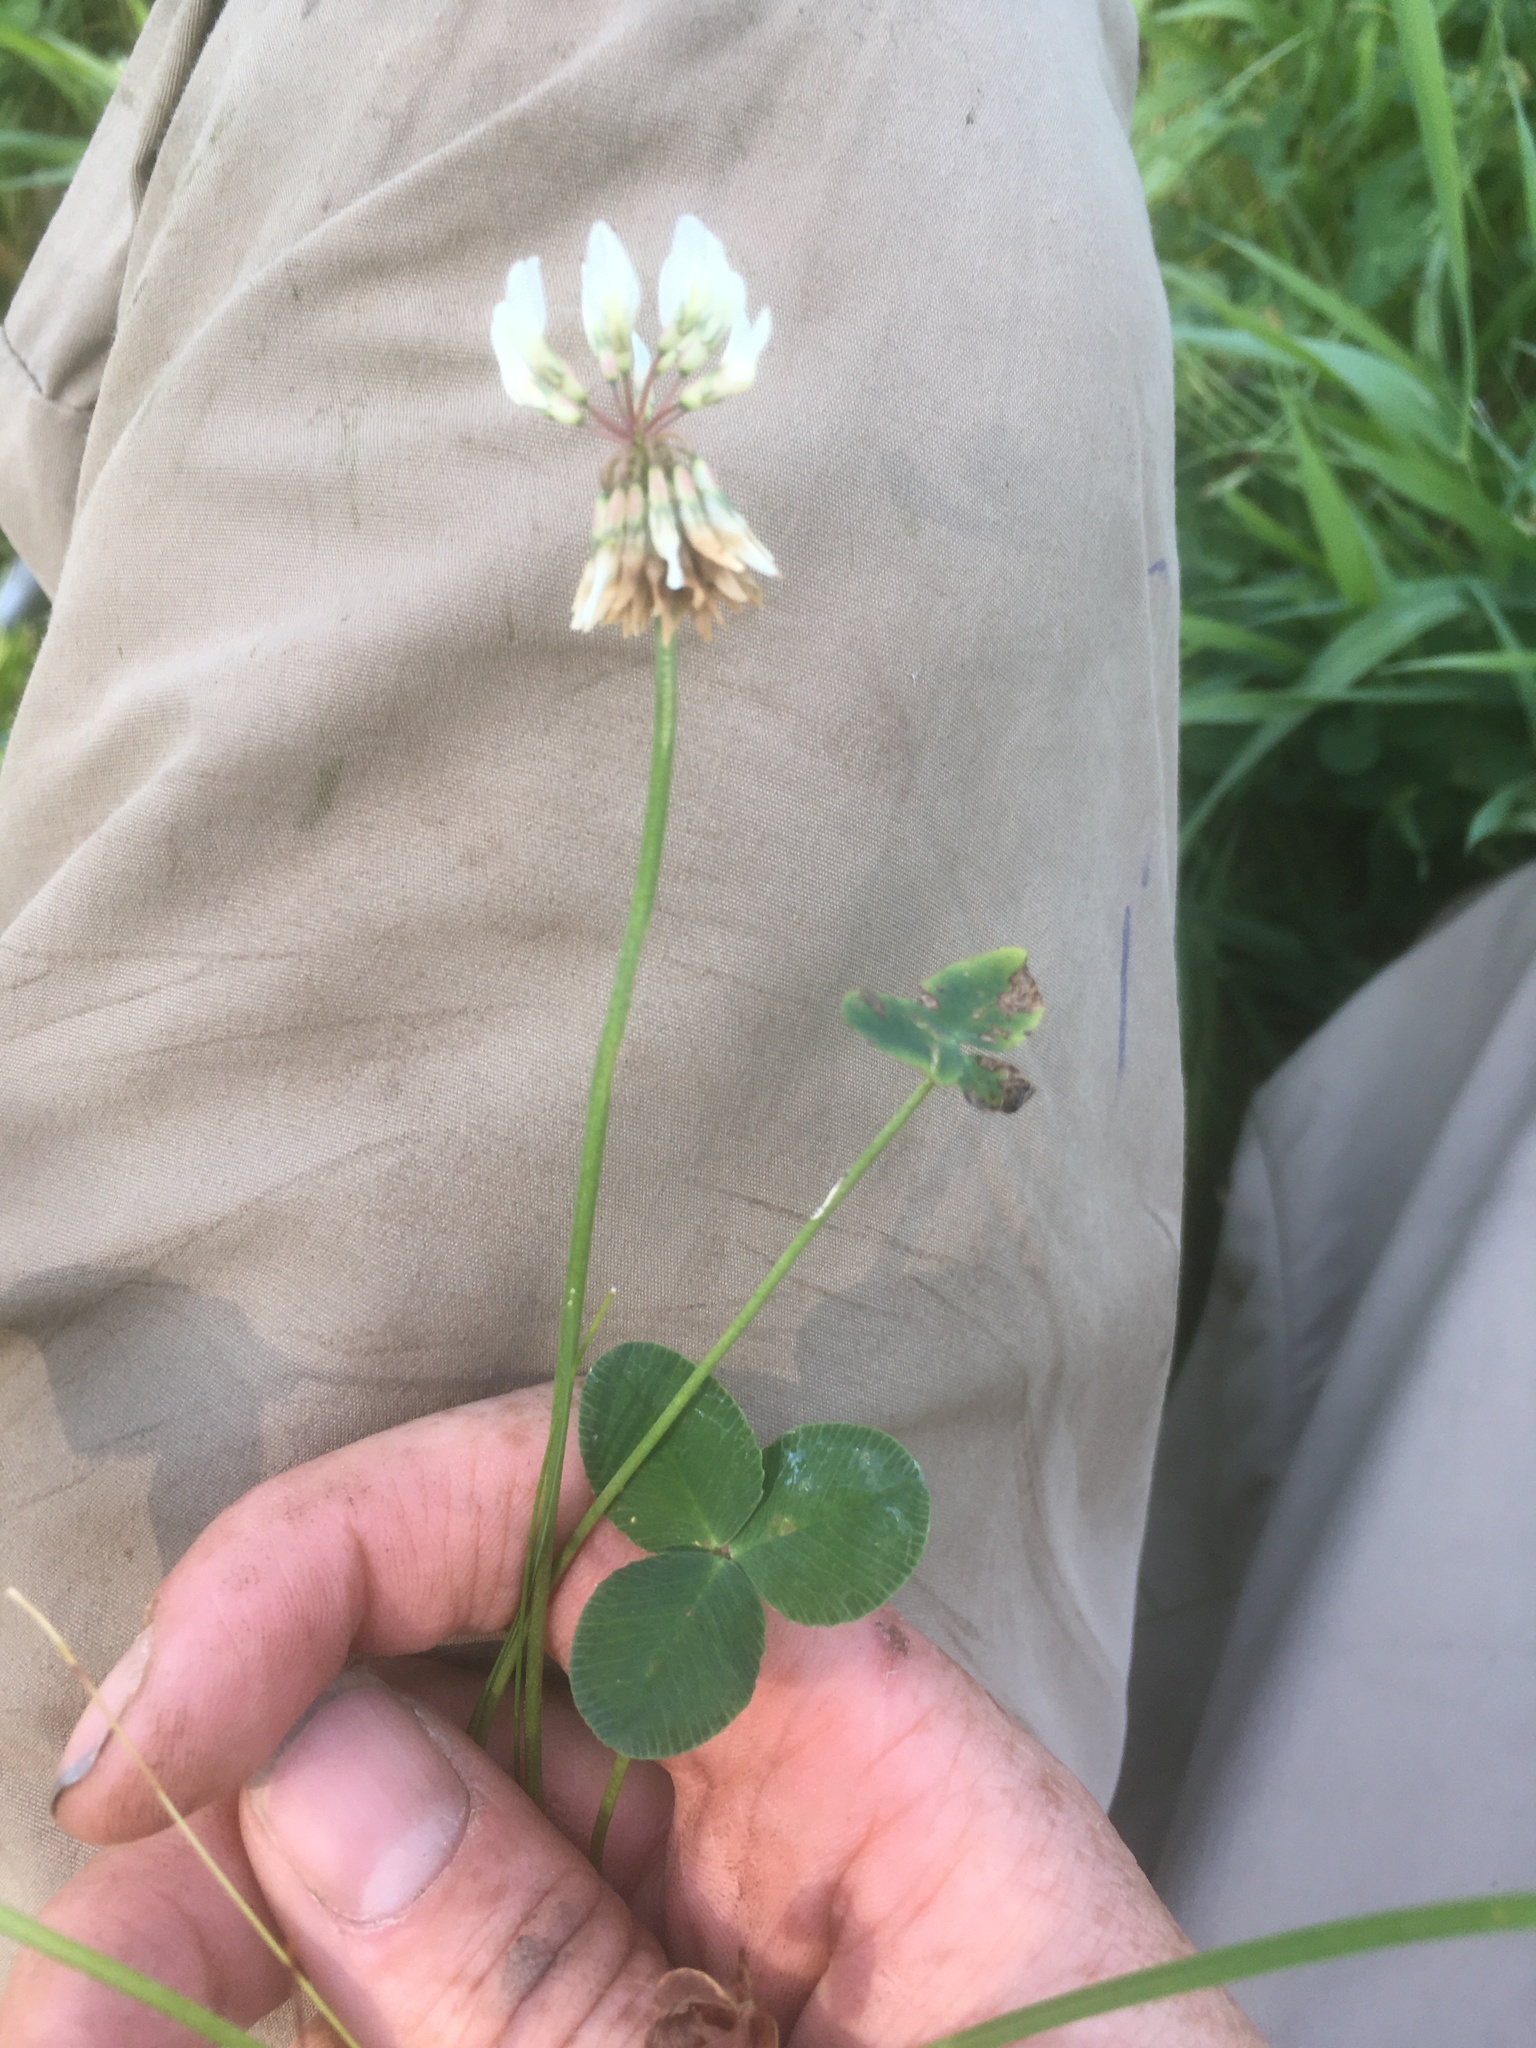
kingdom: Plantae
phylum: Tracheophyta
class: Magnoliopsida
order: Fabales
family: Fabaceae
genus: Trifolium
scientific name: Trifolium repens
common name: White clover
